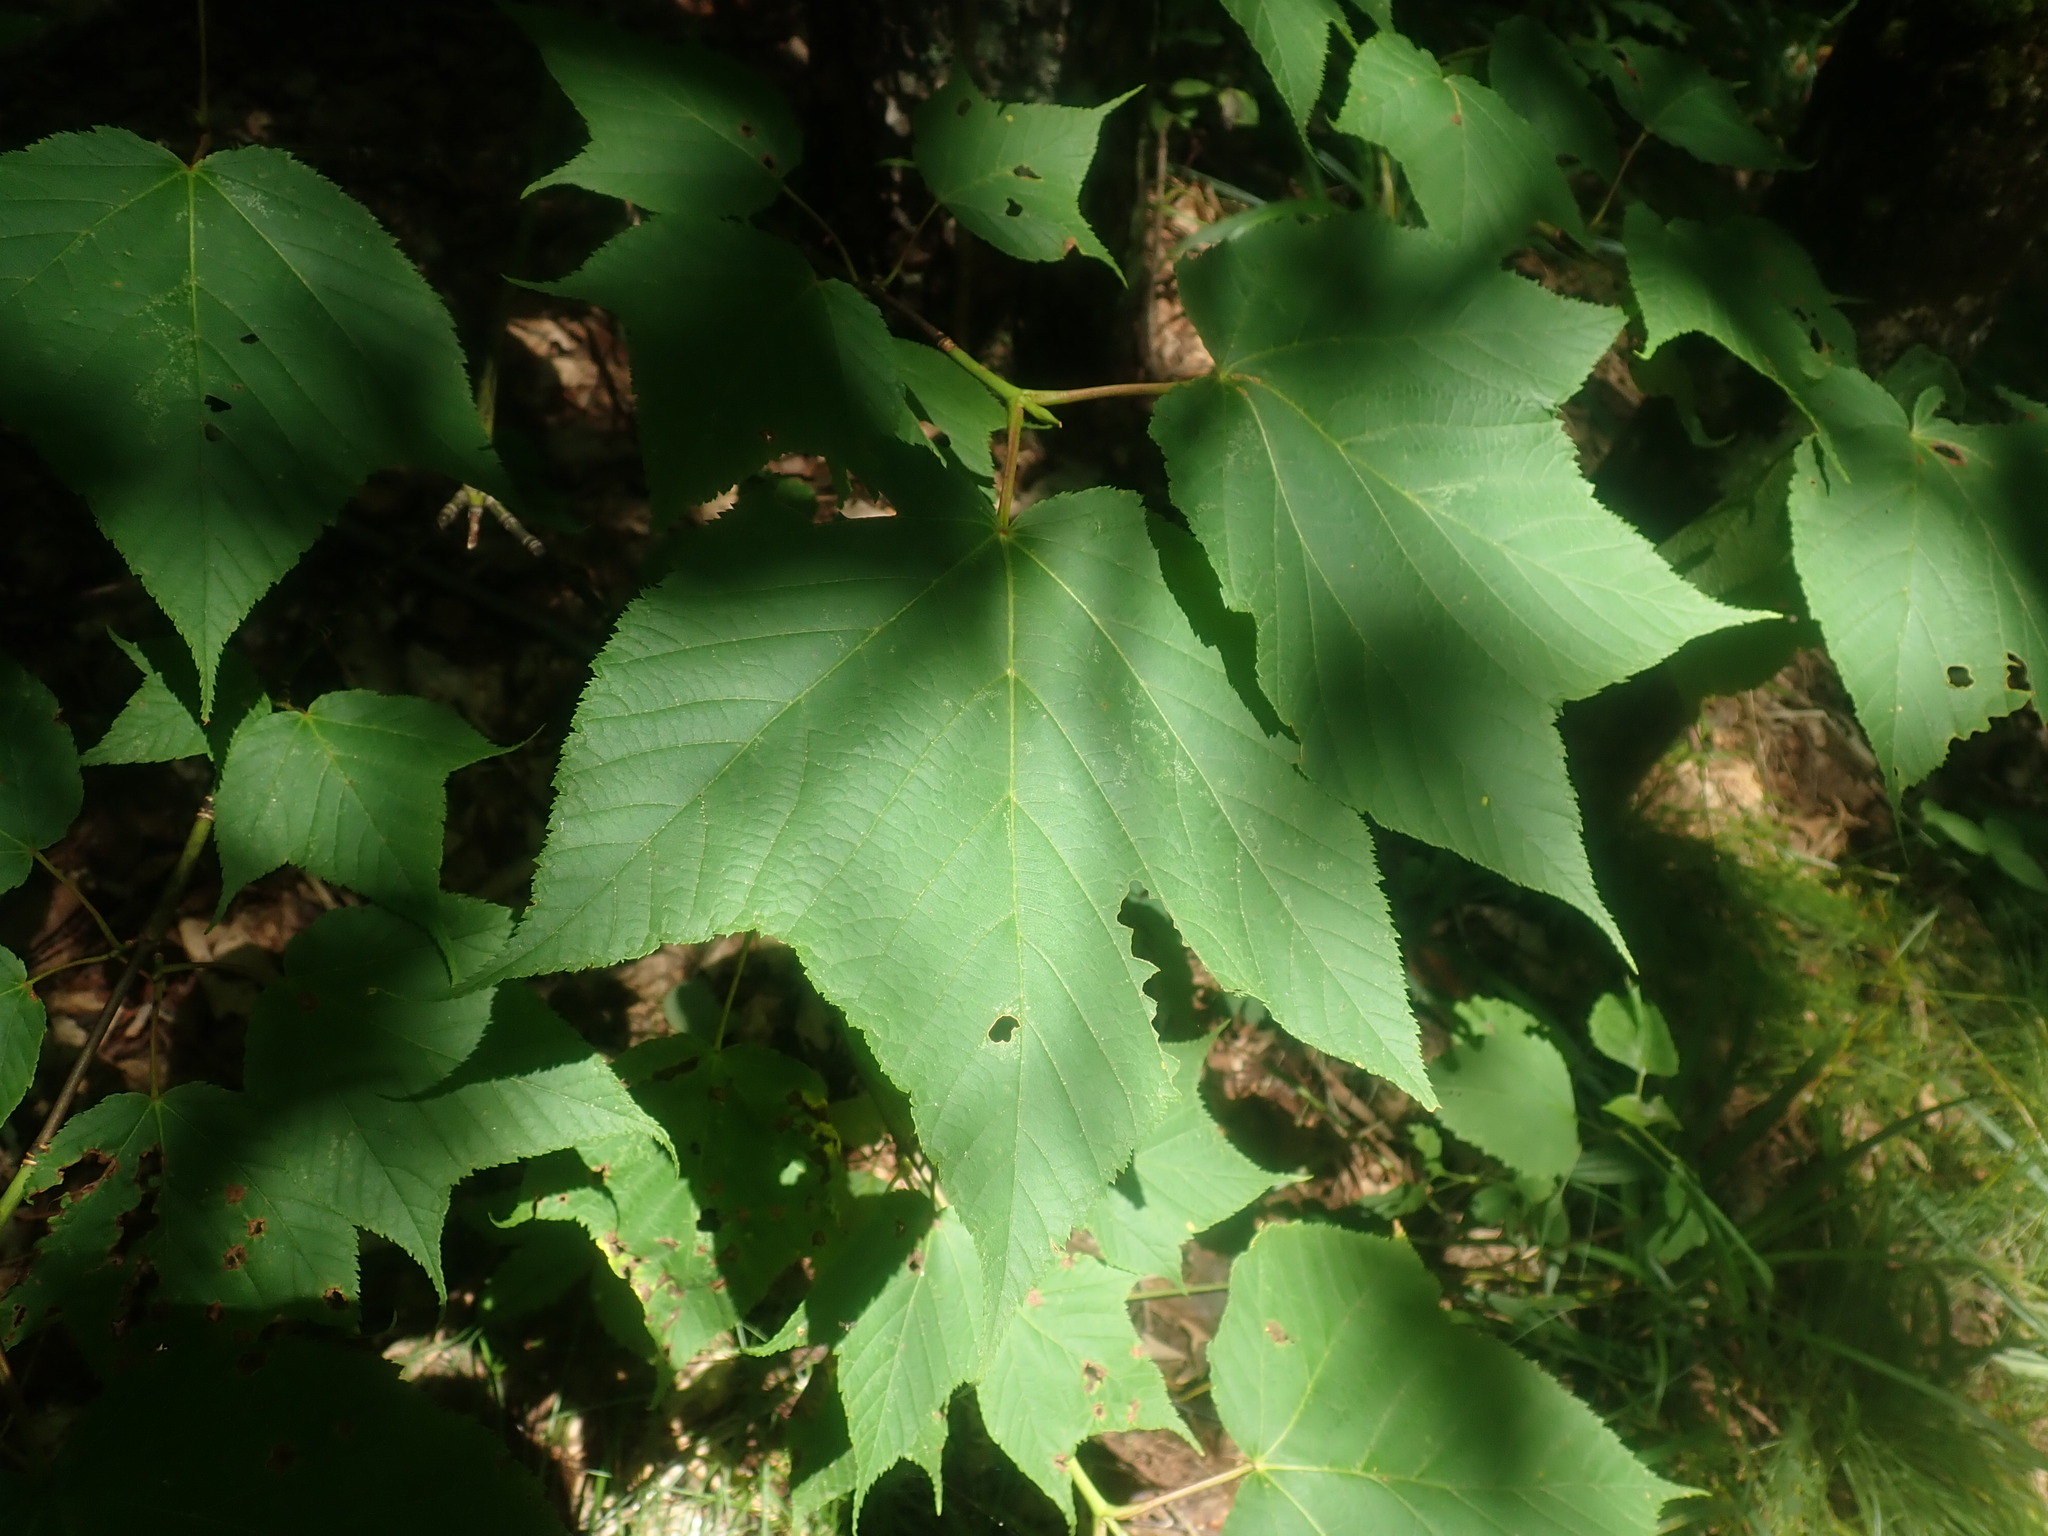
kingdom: Plantae
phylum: Tracheophyta
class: Magnoliopsida
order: Sapindales
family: Sapindaceae
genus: Acer
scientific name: Acer pensylvanicum
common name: Moosewood
